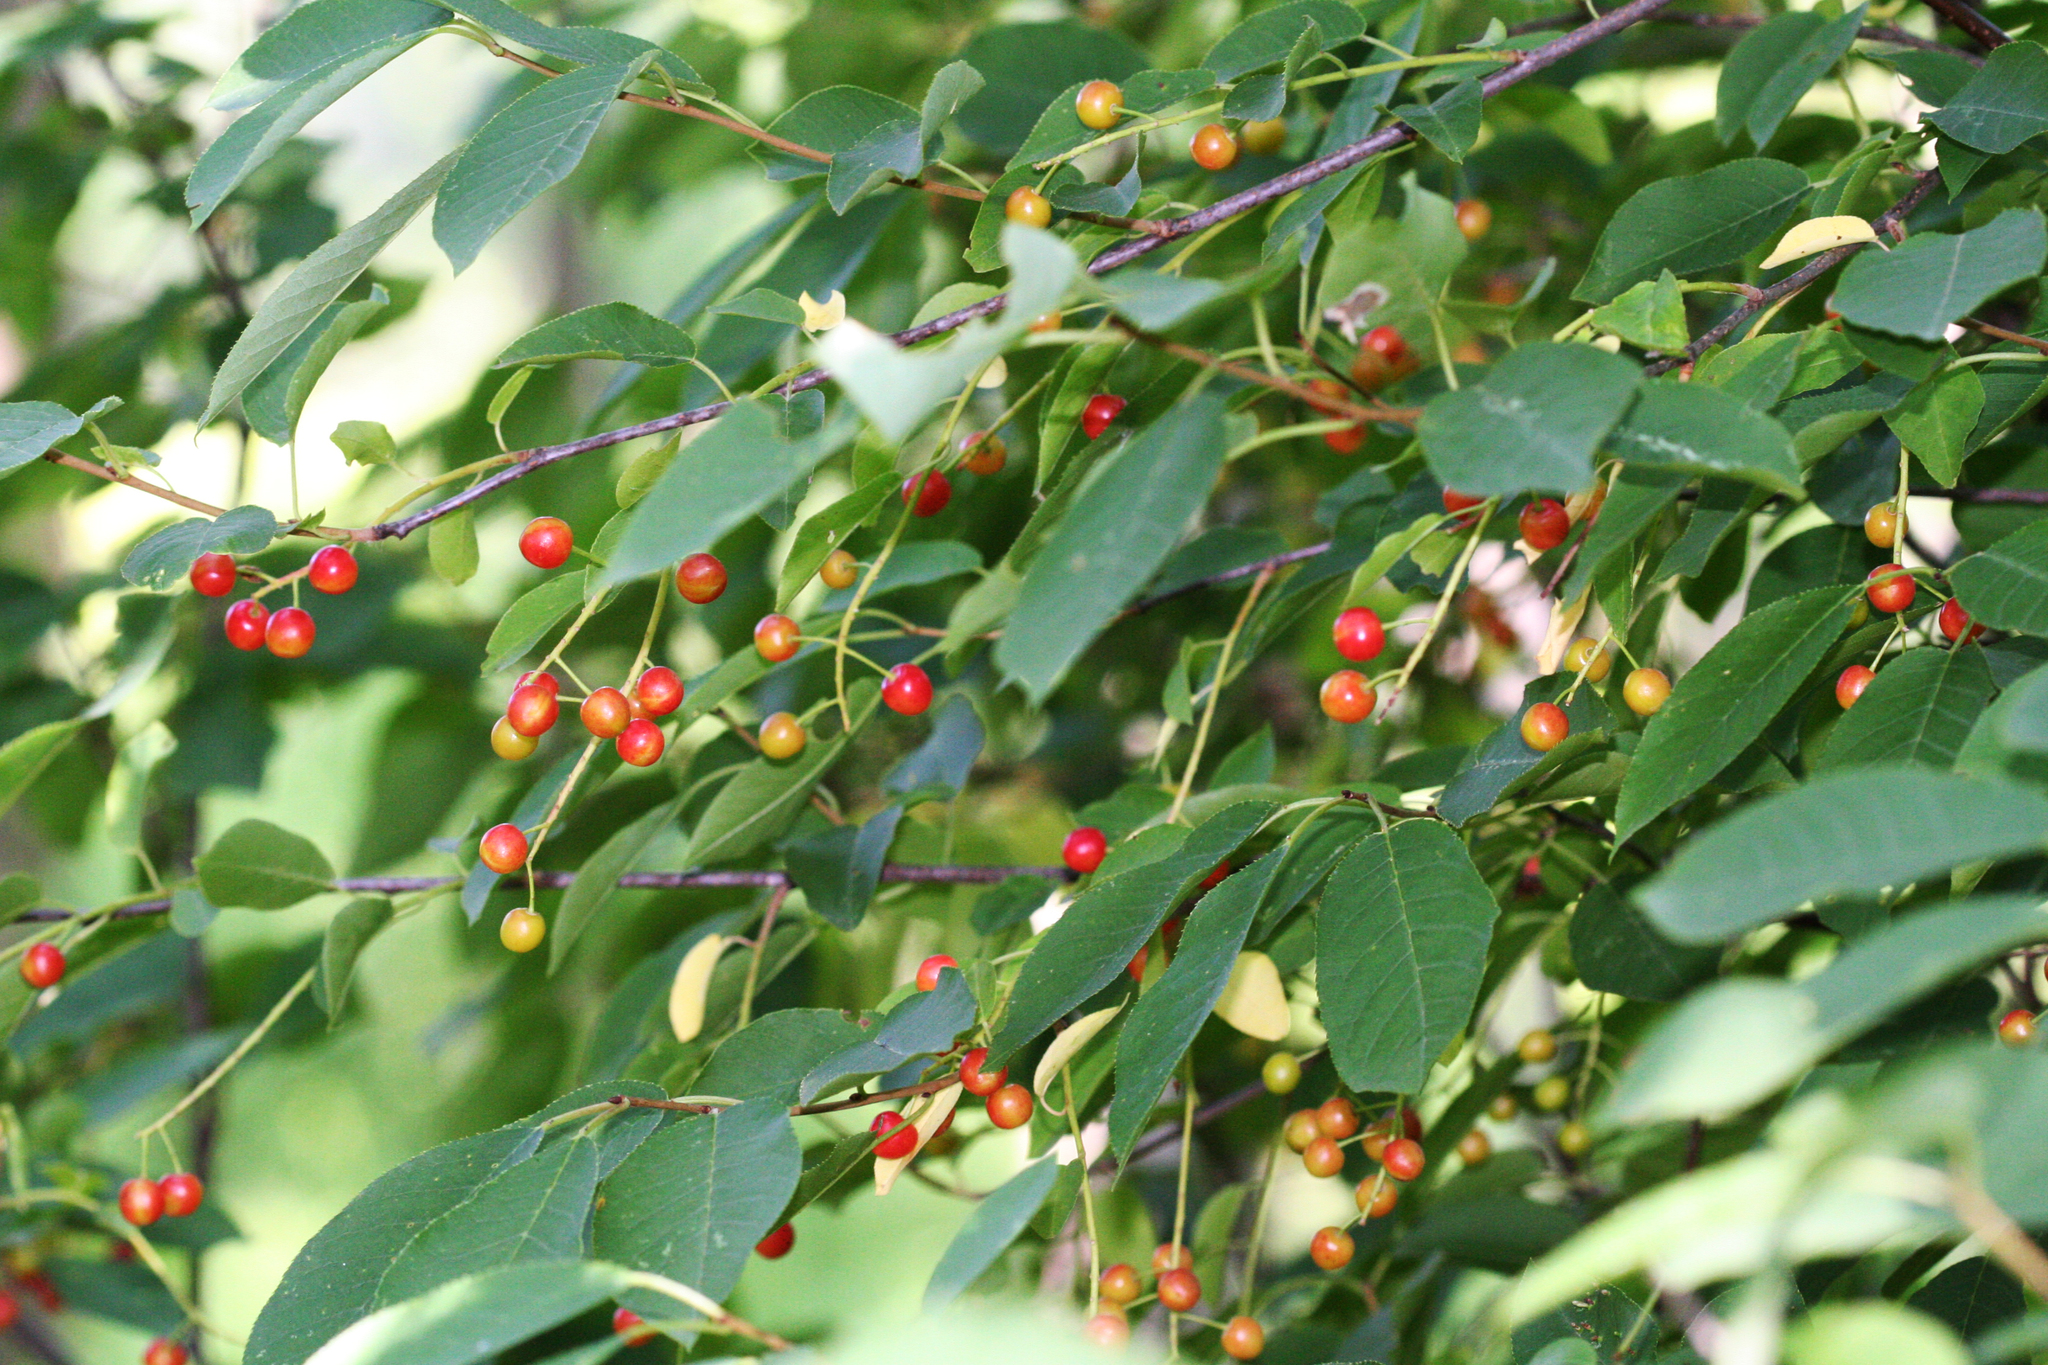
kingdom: Plantae
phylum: Tracheophyta
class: Magnoliopsida
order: Rosales
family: Rosaceae
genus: Prunus
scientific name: Prunus virginiana
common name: Chokecherry
